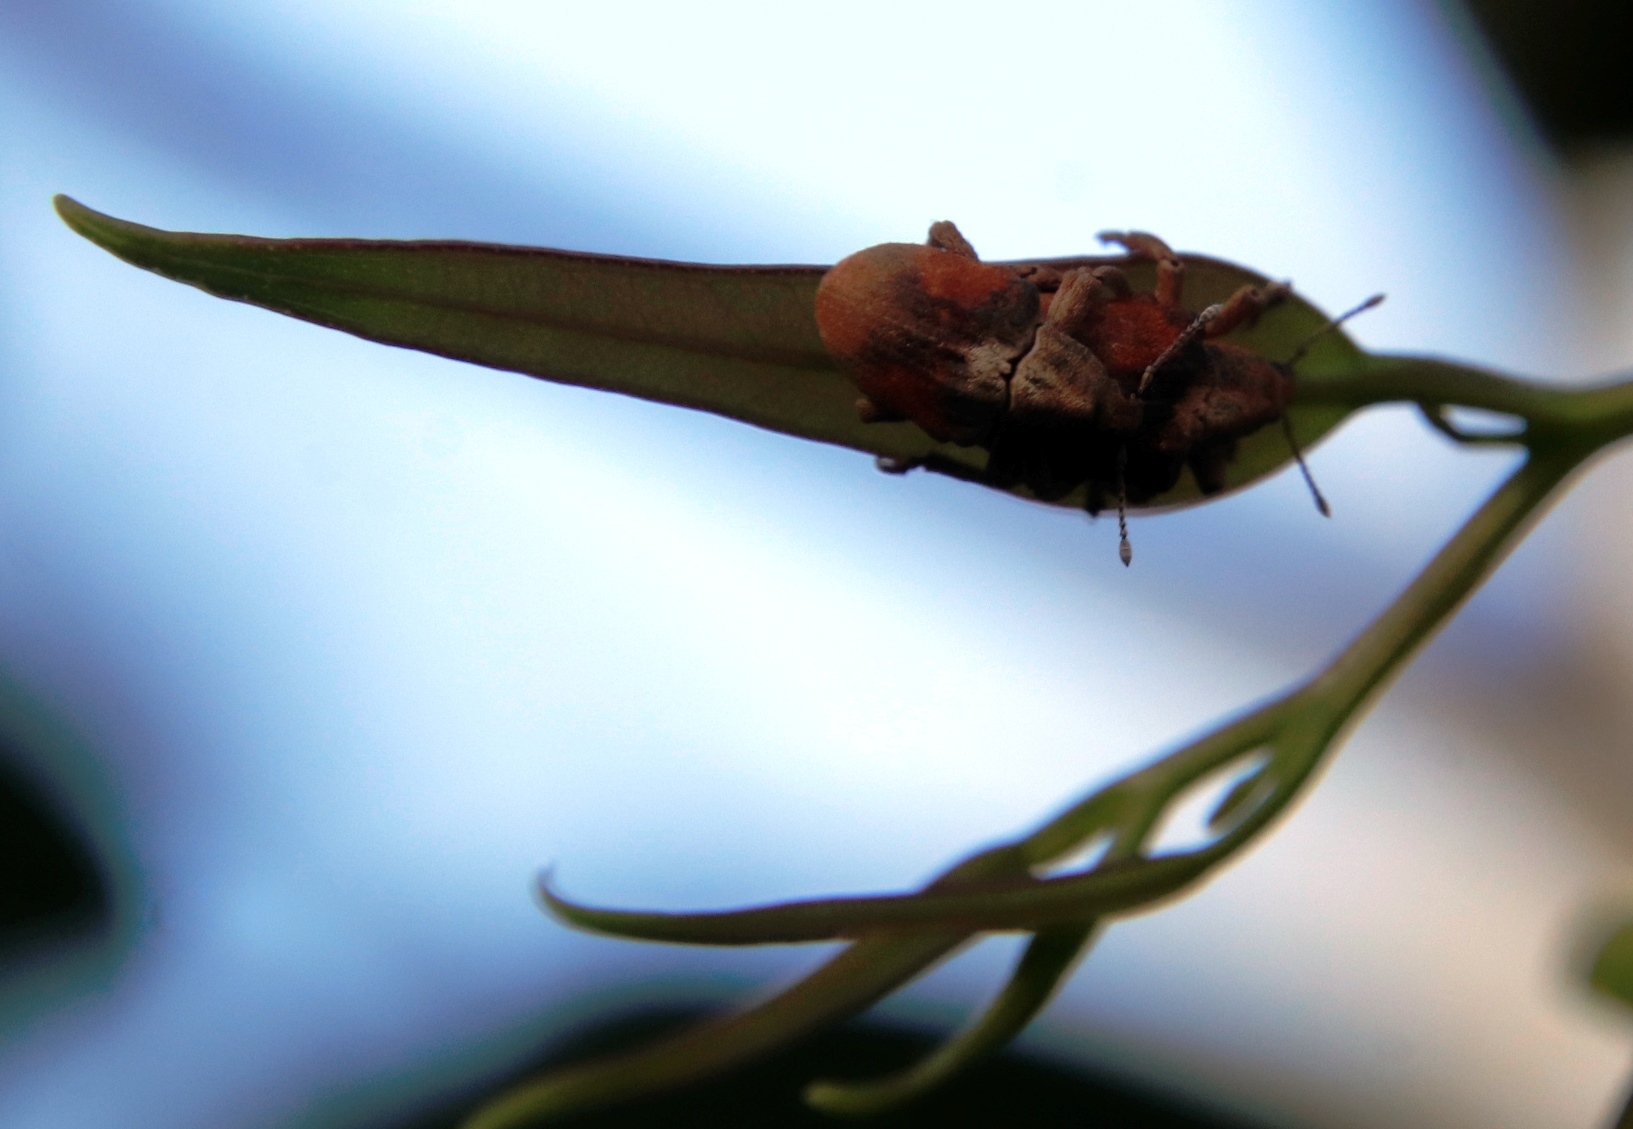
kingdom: Animalia
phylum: Arthropoda
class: Insecta
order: Coleoptera
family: Curculionidae
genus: Gonipterus
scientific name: Gonipterus
